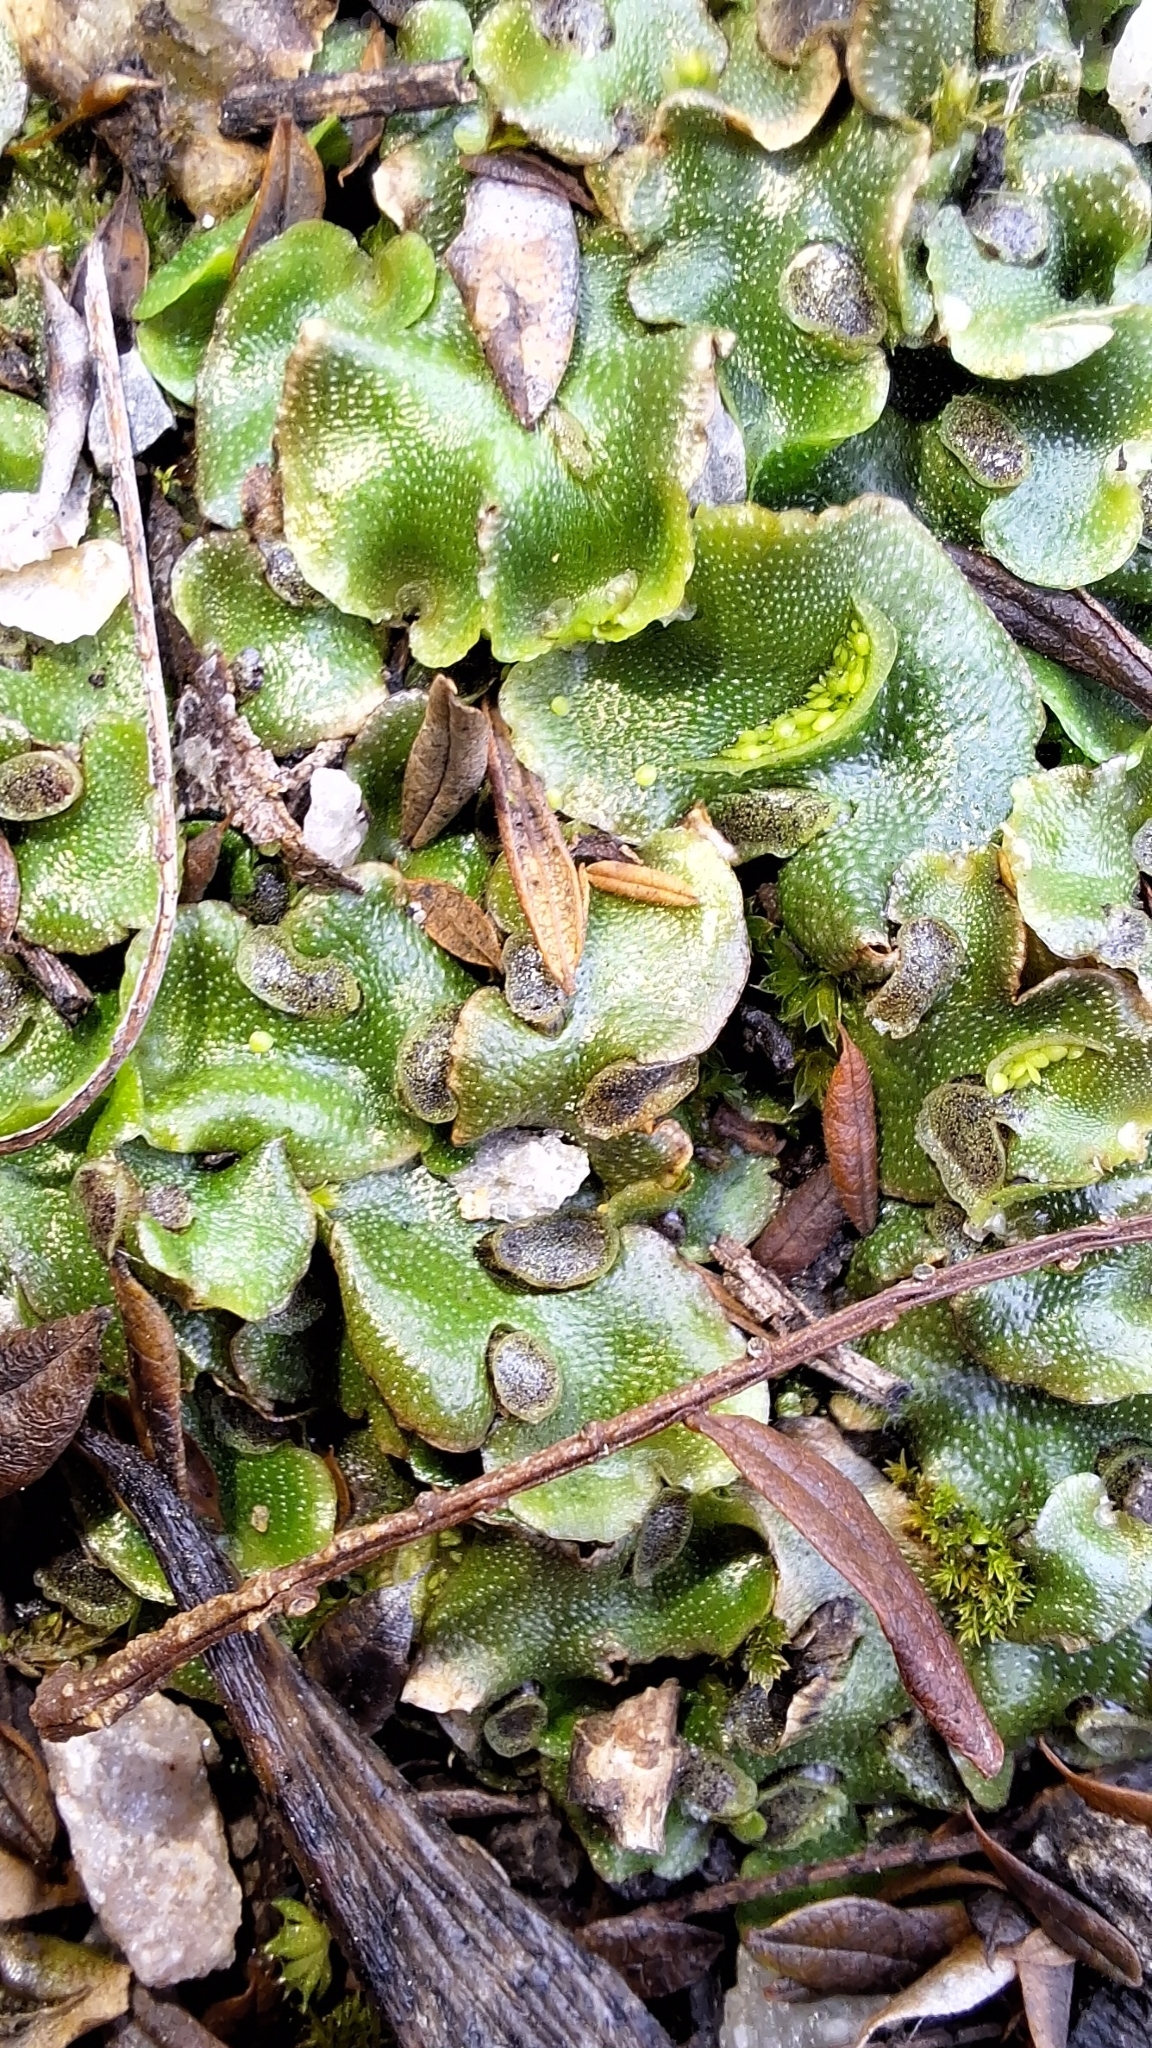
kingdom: Plantae
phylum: Marchantiophyta
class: Marchantiopsida
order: Lunulariales
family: Lunulariaceae
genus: Lunularia
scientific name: Lunularia cruciata
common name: Crescent-cup liverwort
